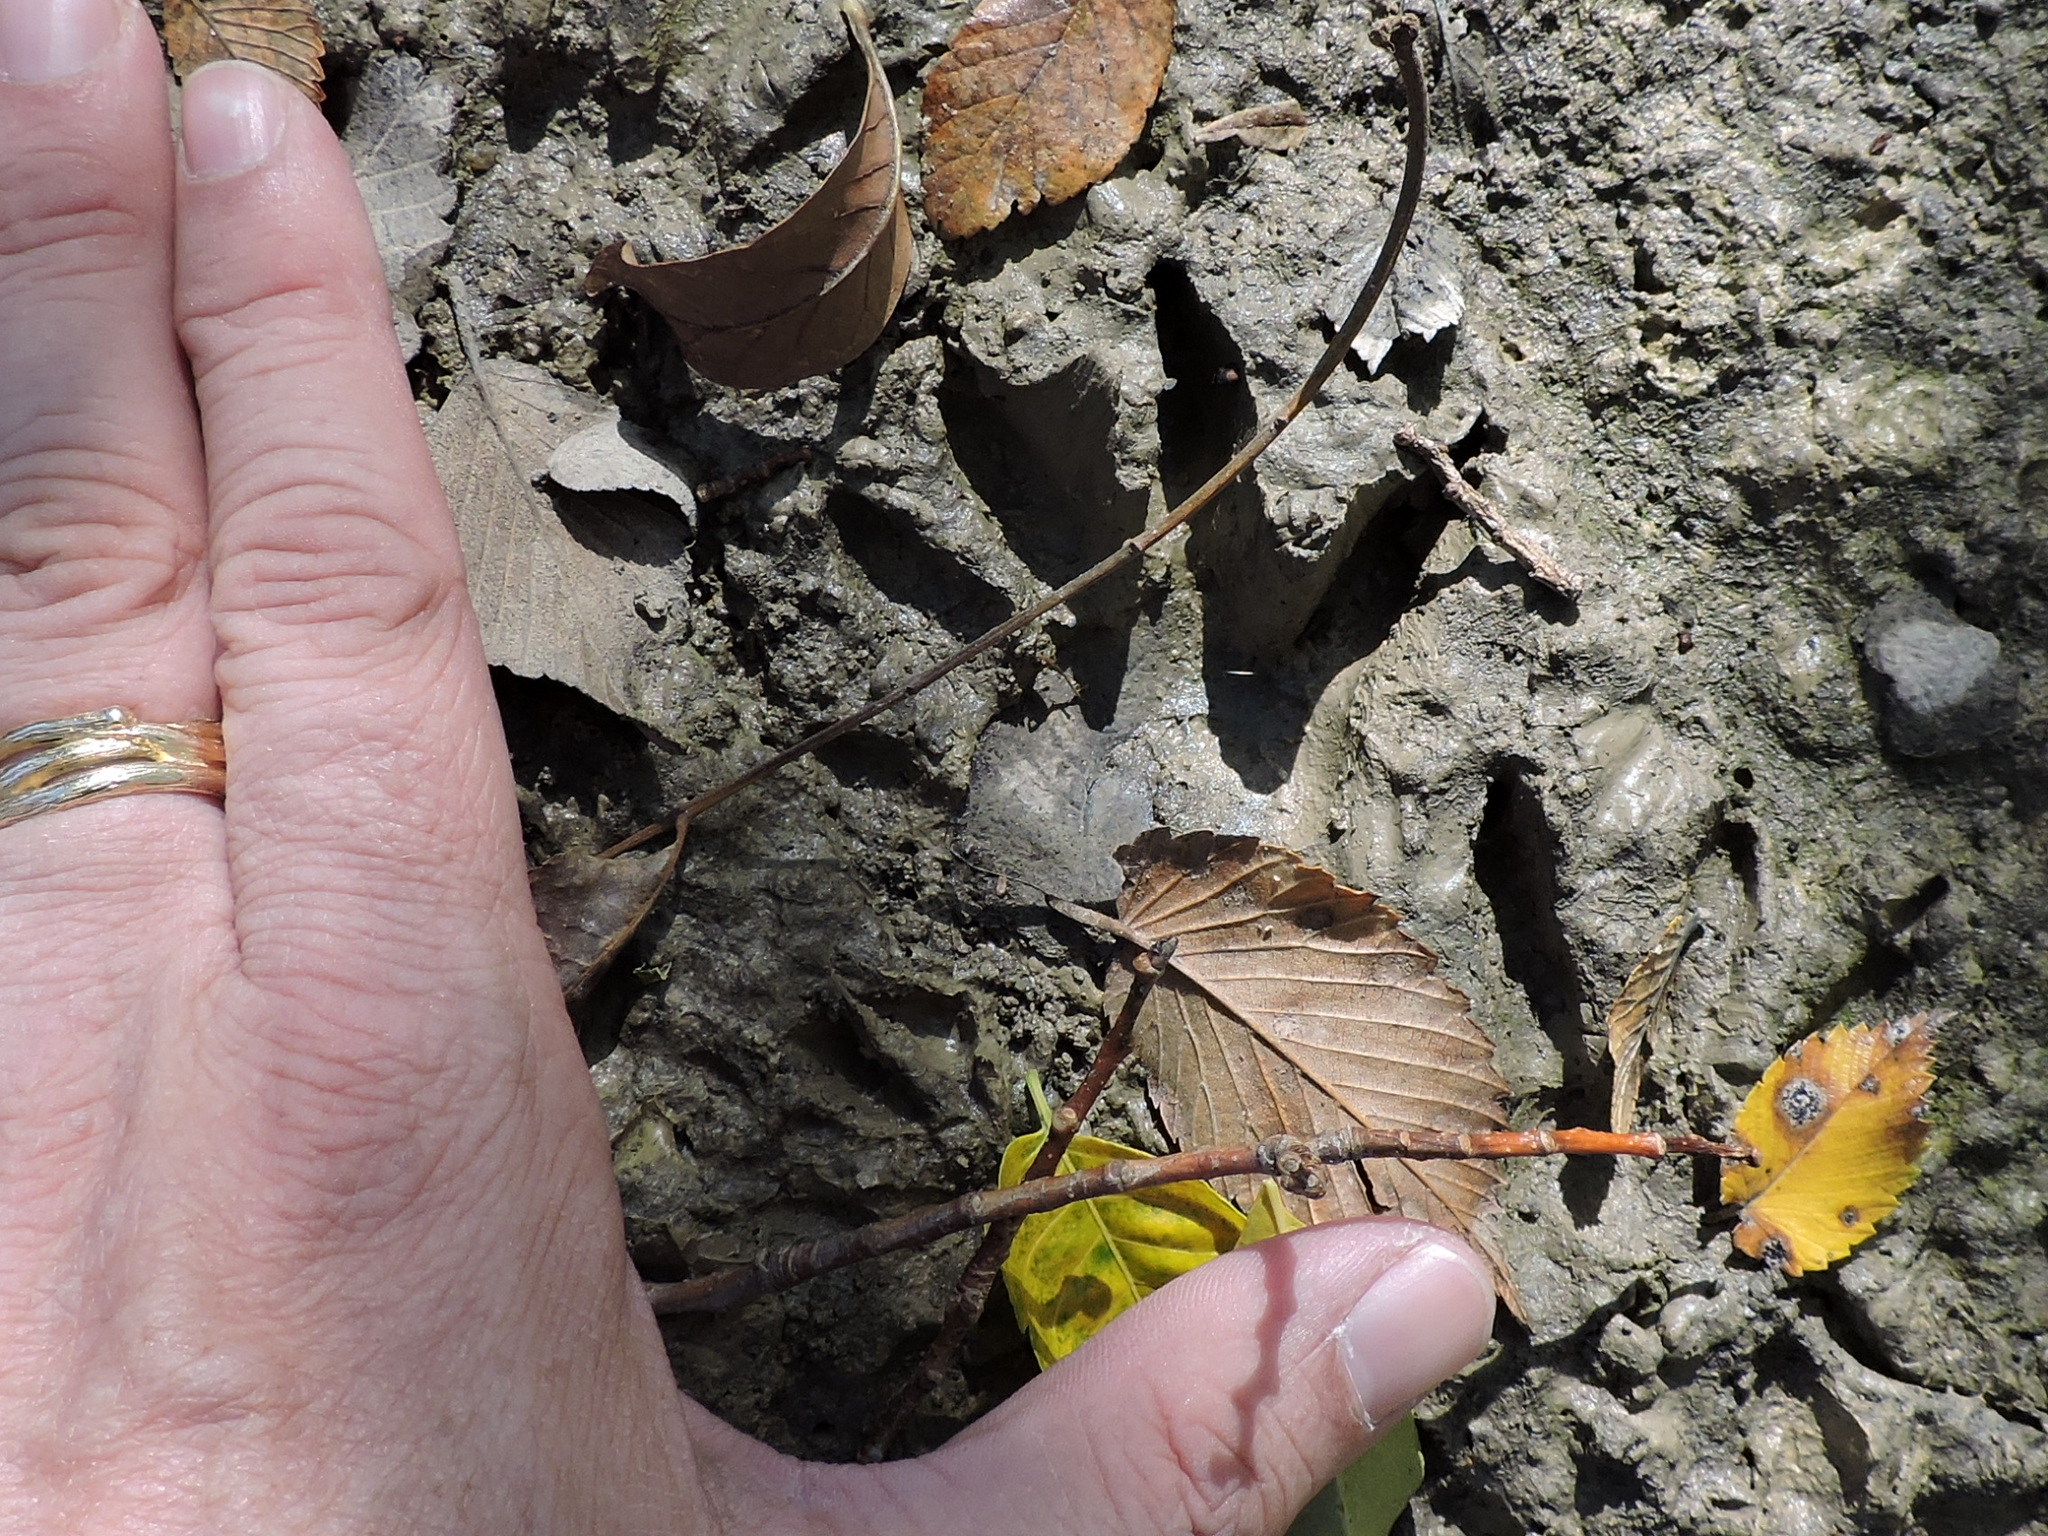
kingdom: Animalia
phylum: Chordata
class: Mammalia
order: Carnivora
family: Procyonidae
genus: Procyon
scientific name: Procyon lotor
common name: Raccoon
